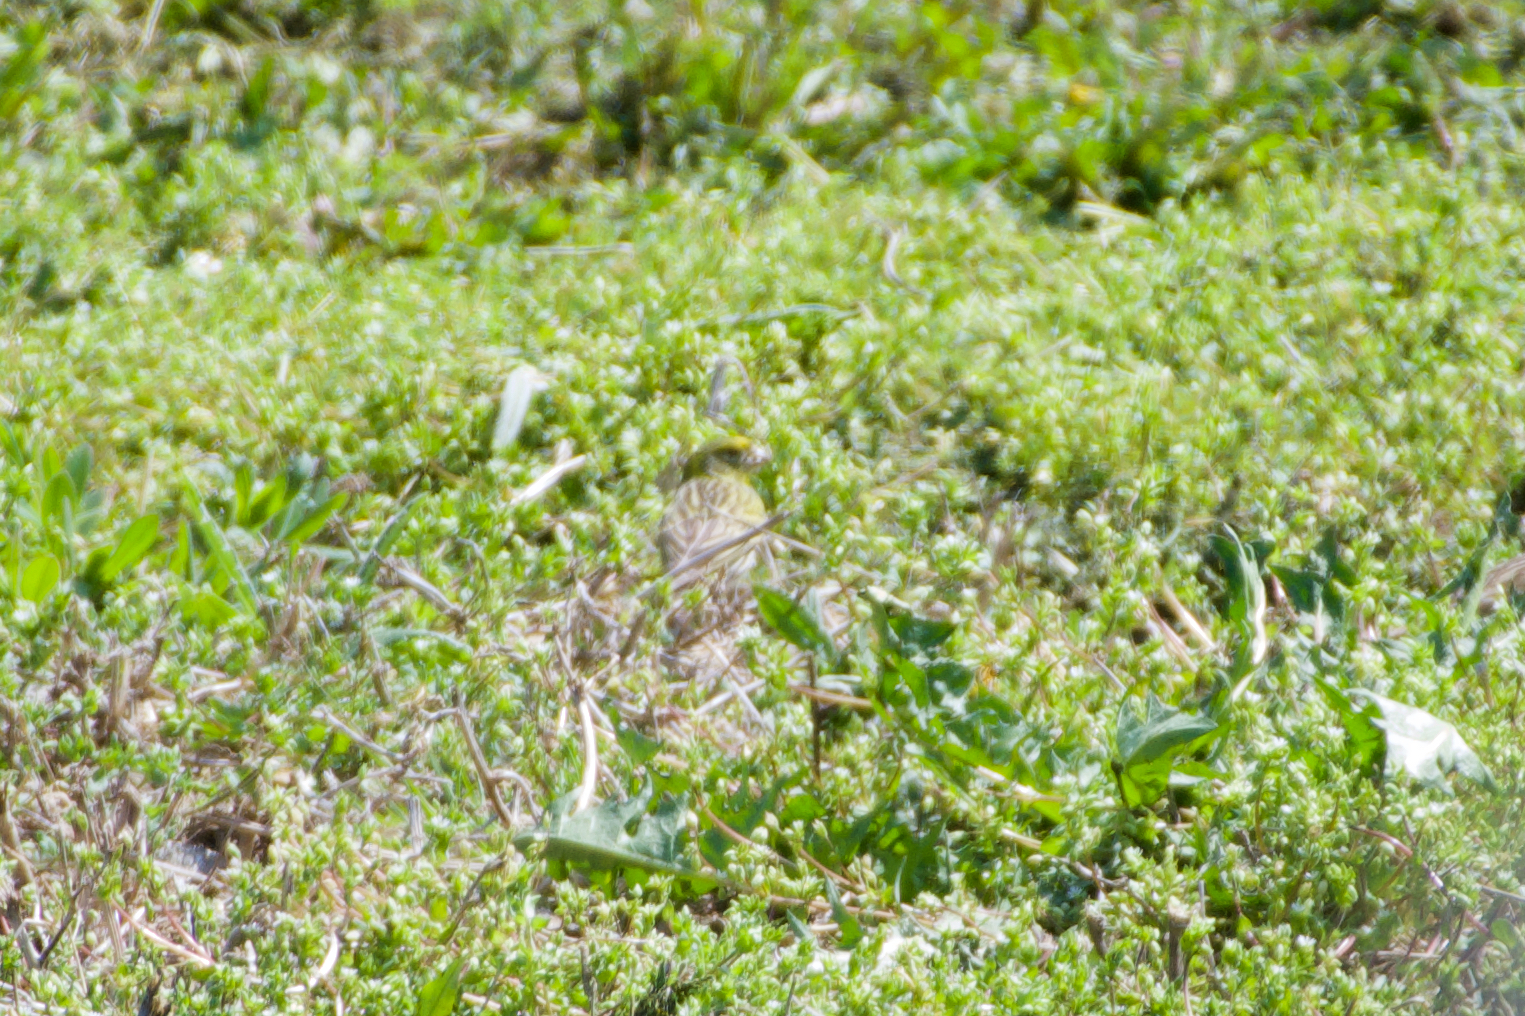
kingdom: Animalia
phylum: Chordata
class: Aves
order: Passeriformes
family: Fringillidae
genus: Serinus
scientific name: Serinus serinus
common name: European serin
